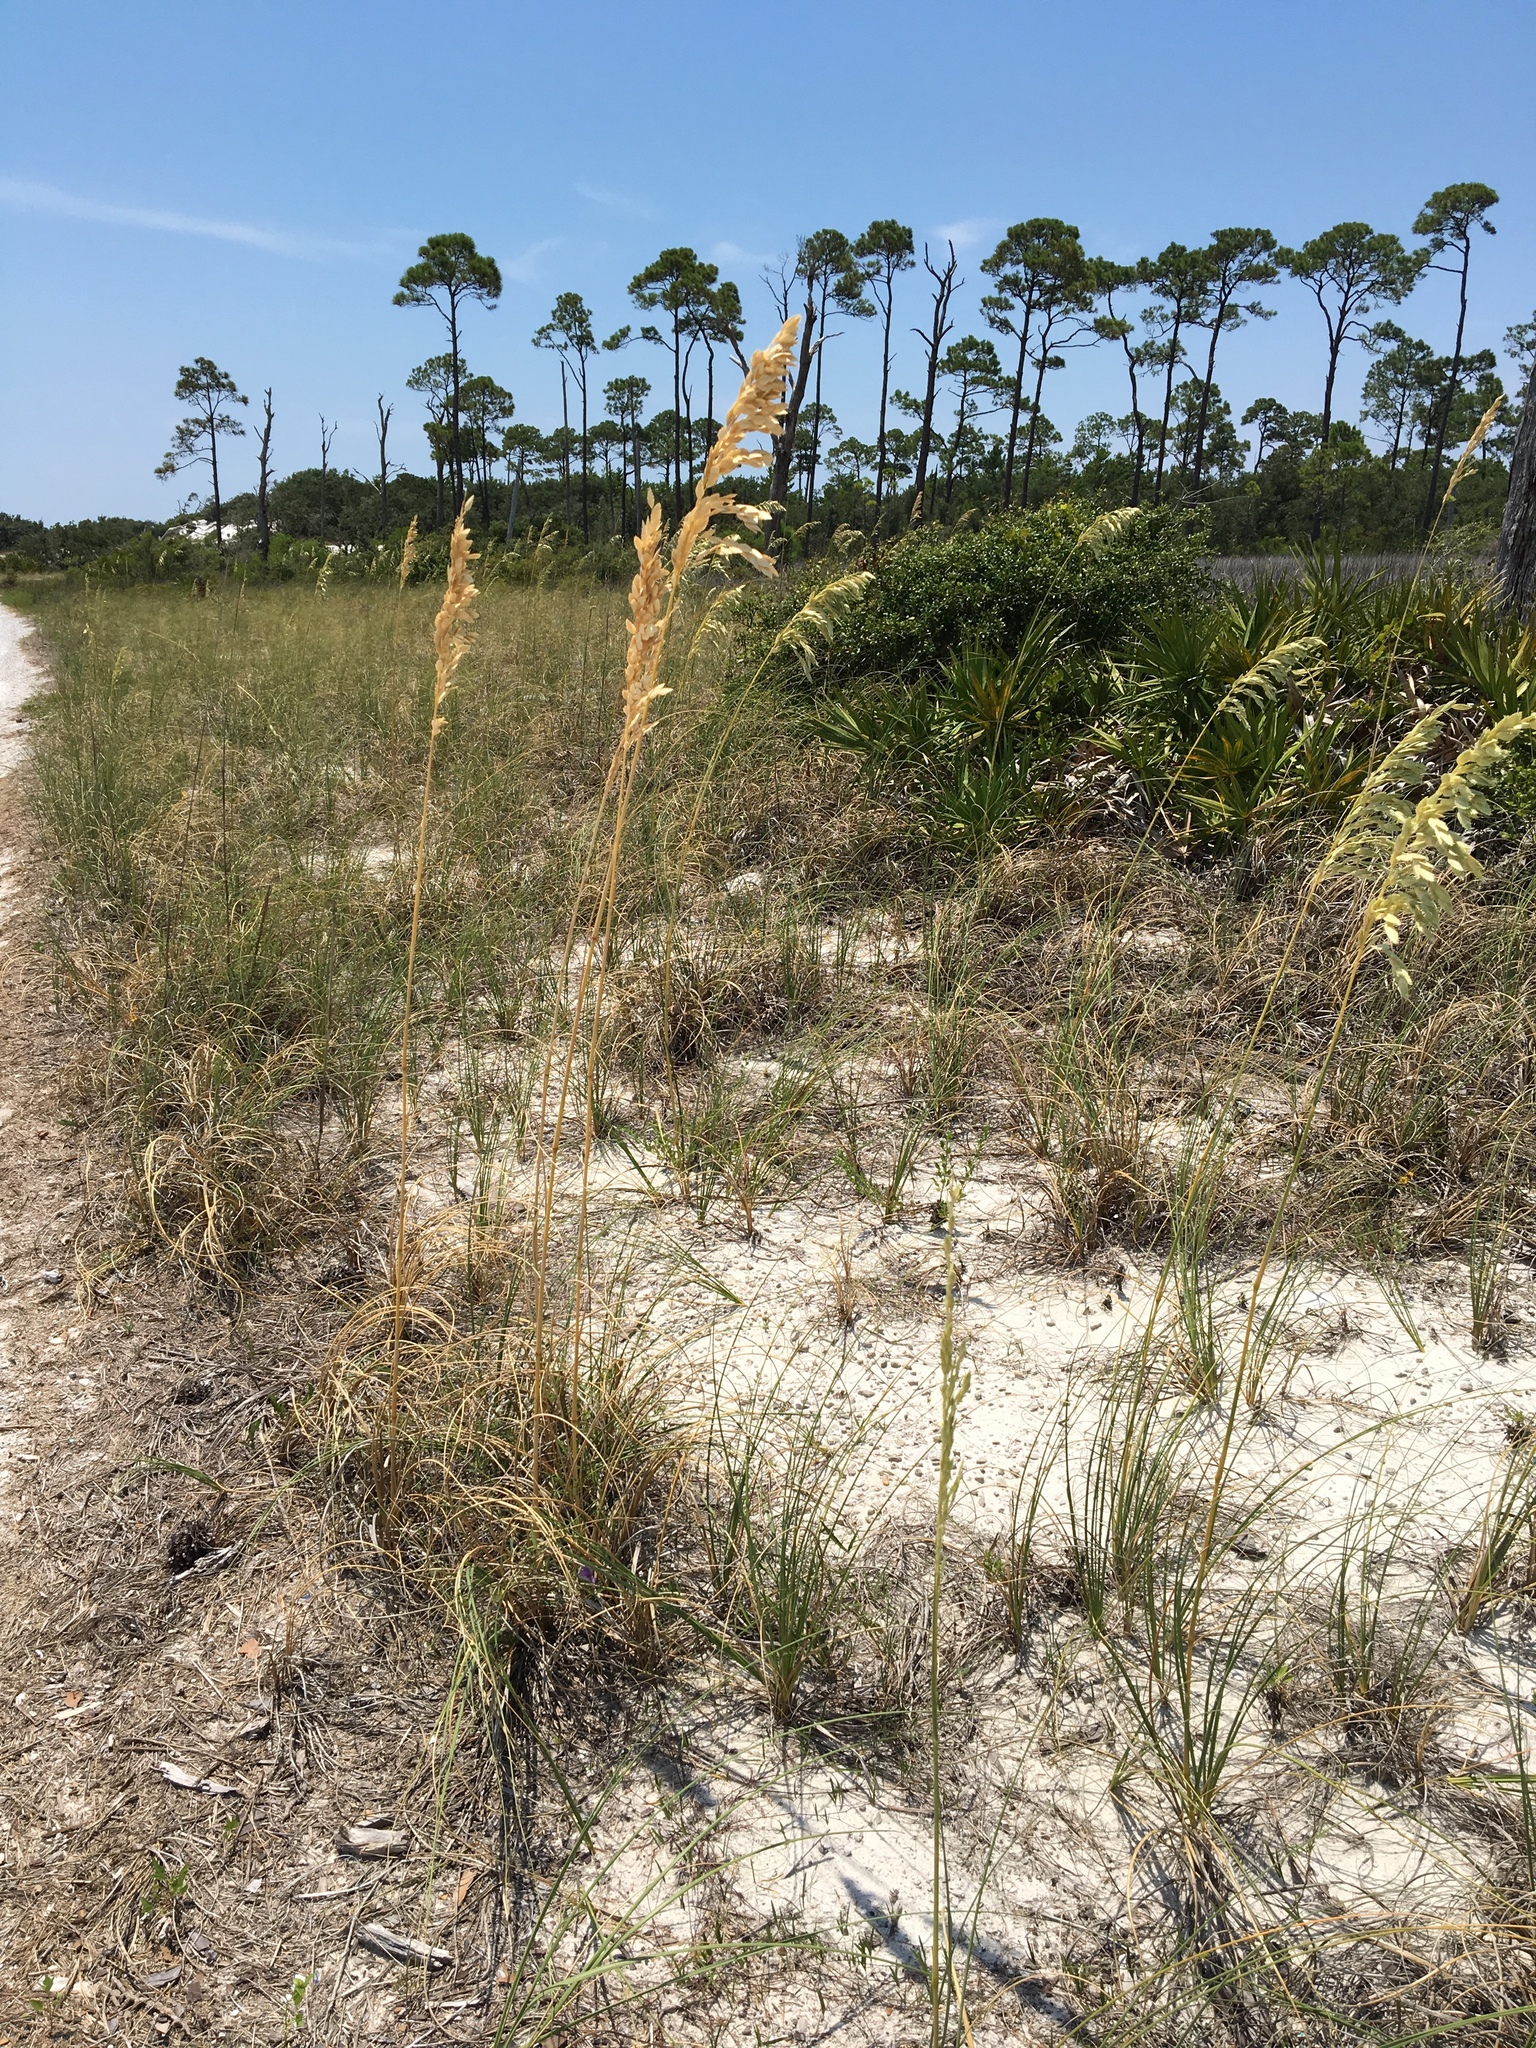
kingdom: Plantae
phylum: Tracheophyta
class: Liliopsida
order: Poales
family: Poaceae
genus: Uniola
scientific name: Uniola paniculata
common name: Seaside-oats
